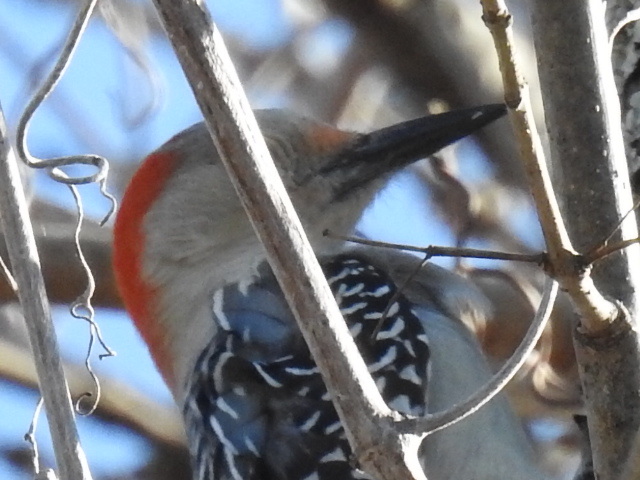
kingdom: Animalia
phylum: Chordata
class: Aves
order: Piciformes
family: Picidae
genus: Melanerpes
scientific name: Melanerpes carolinus
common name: Red-bellied woodpecker
